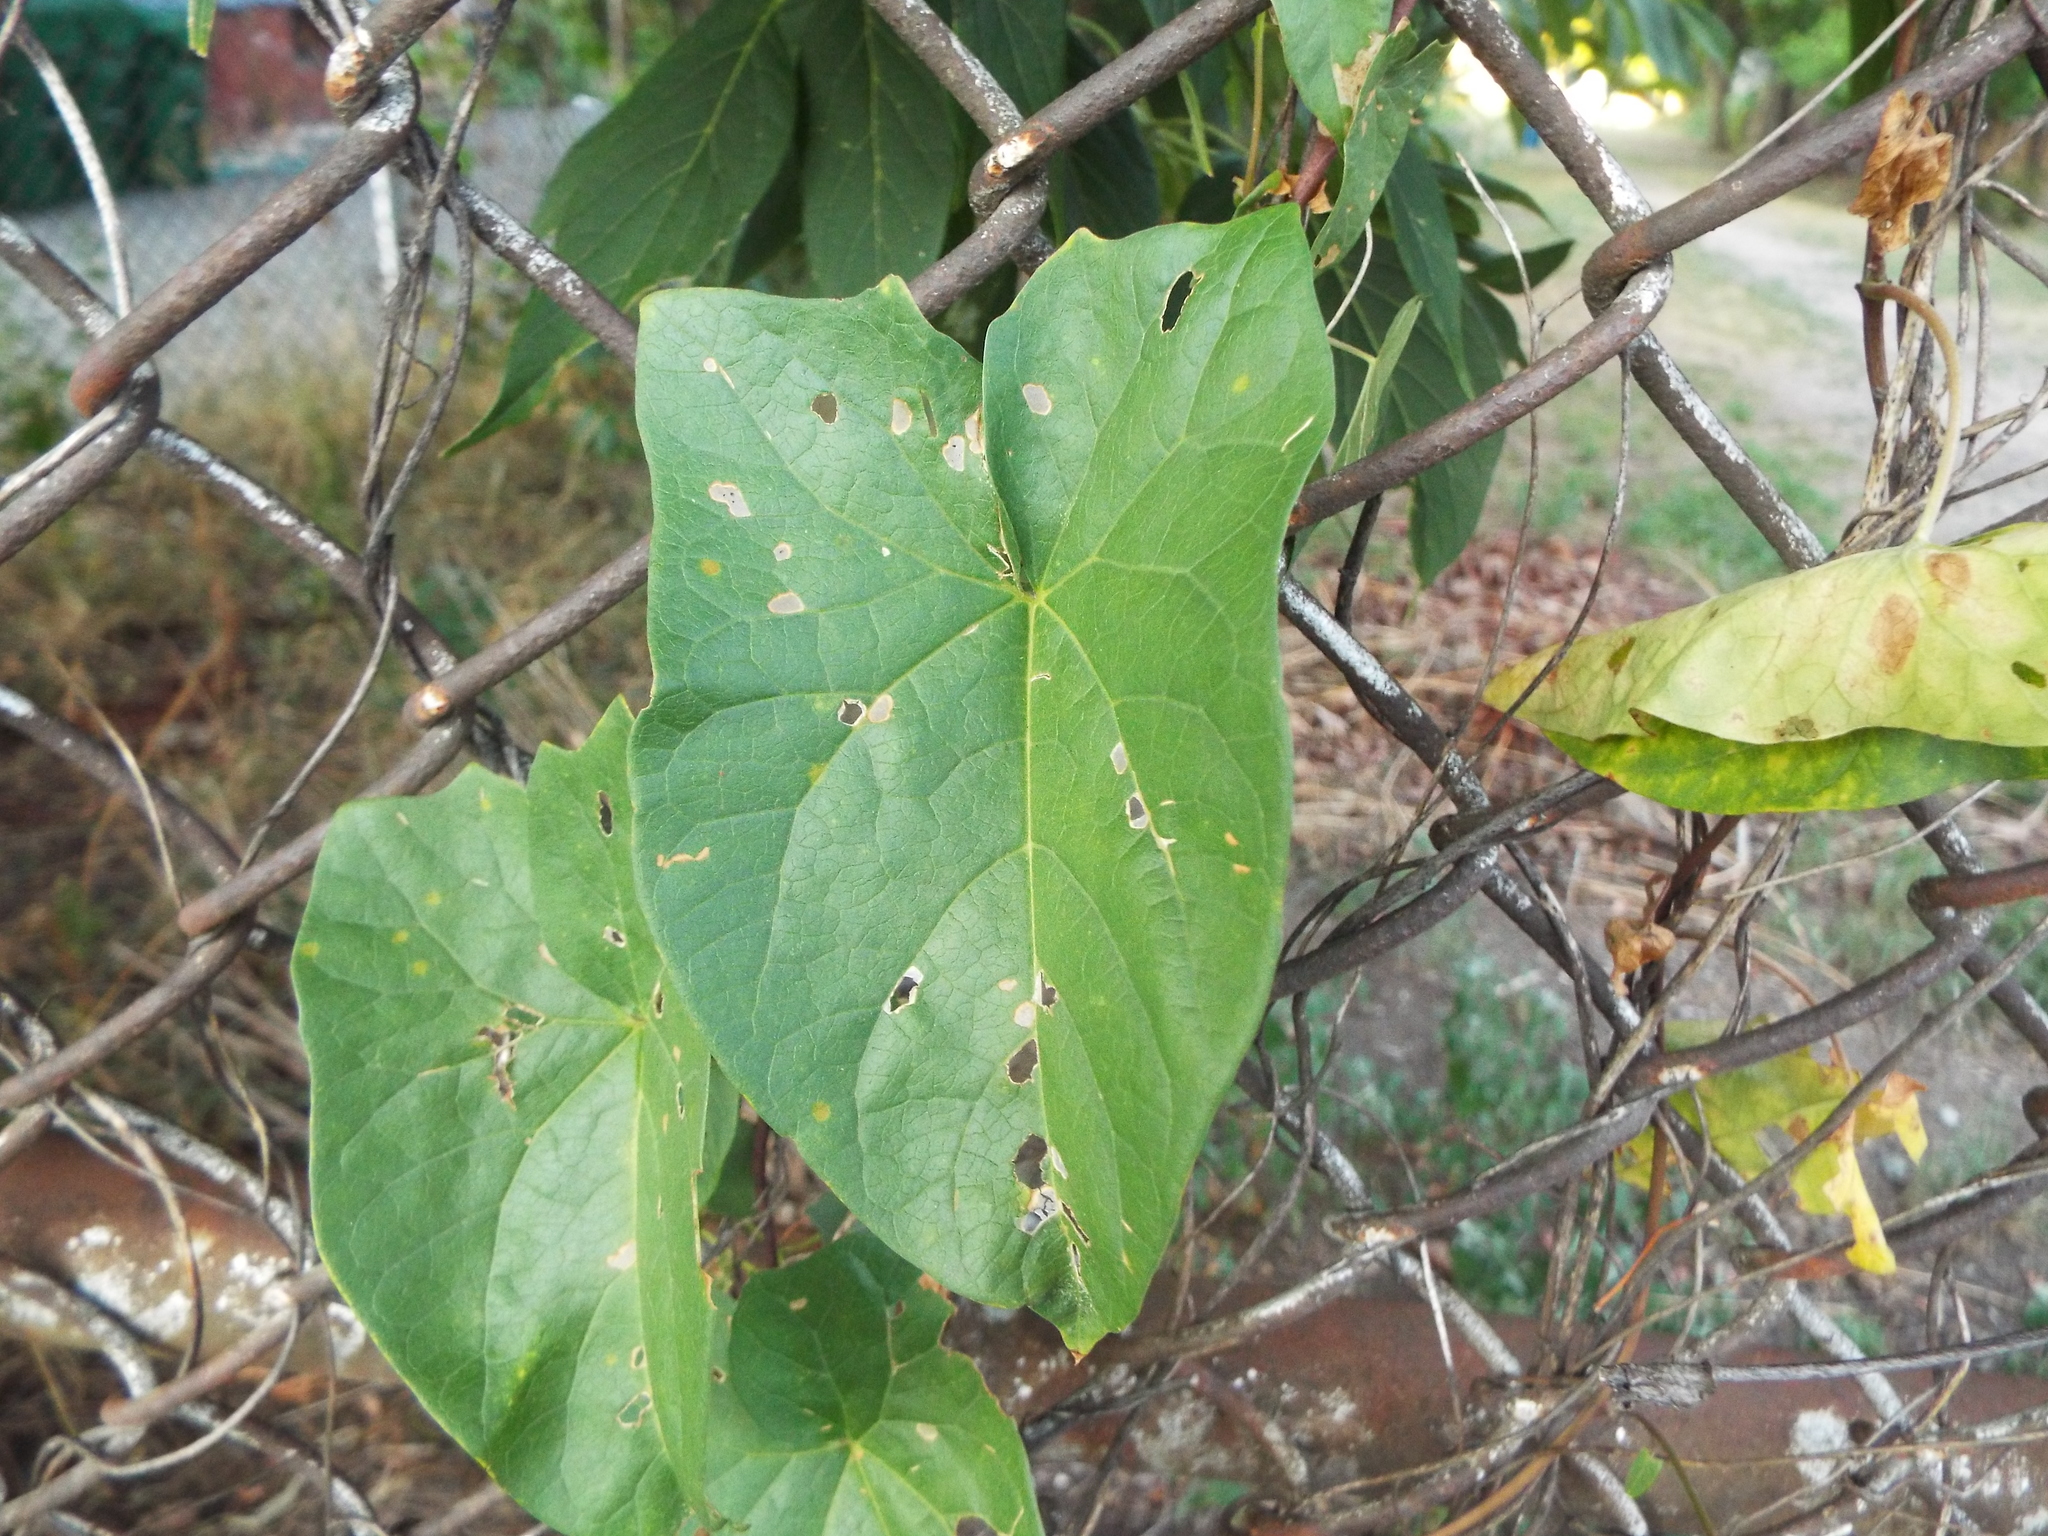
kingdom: Plantae
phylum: Tracheophyta
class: Magnoliopsida
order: Solanales
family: Convolvulaceae
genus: Calystegia
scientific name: Calystegia sepium
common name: Hedge bindweed
